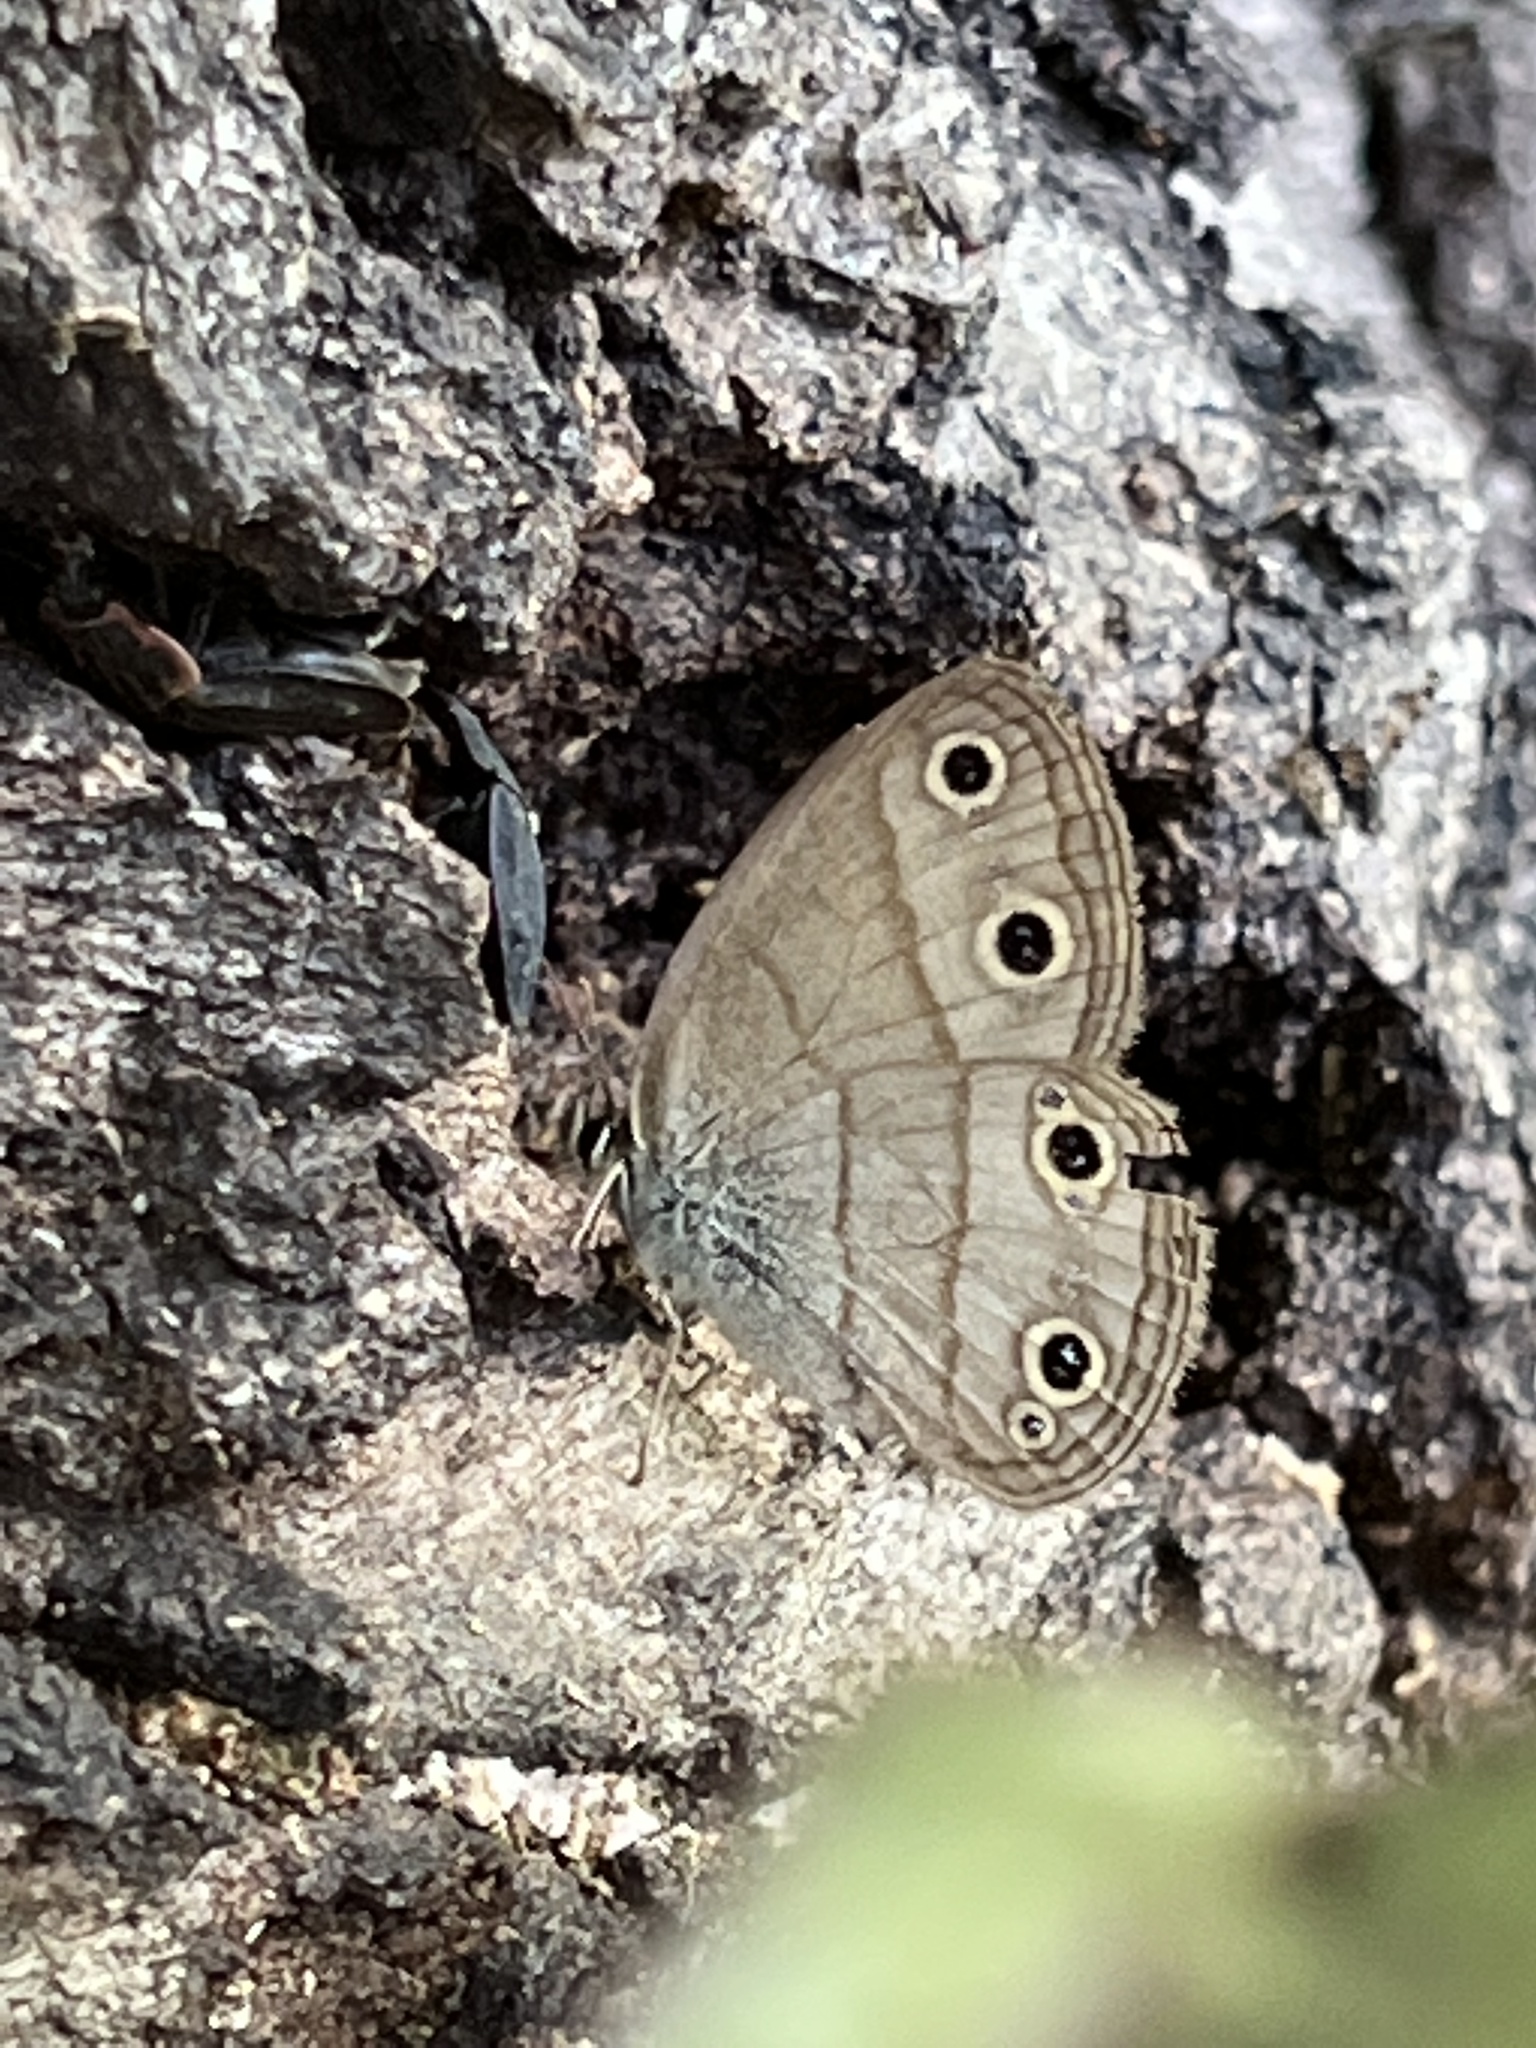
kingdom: Animalia
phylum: Arthropoda
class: Insecta
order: Lepidoptera
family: Nymphalidae
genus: Euptychia
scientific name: Euptychia cymela
